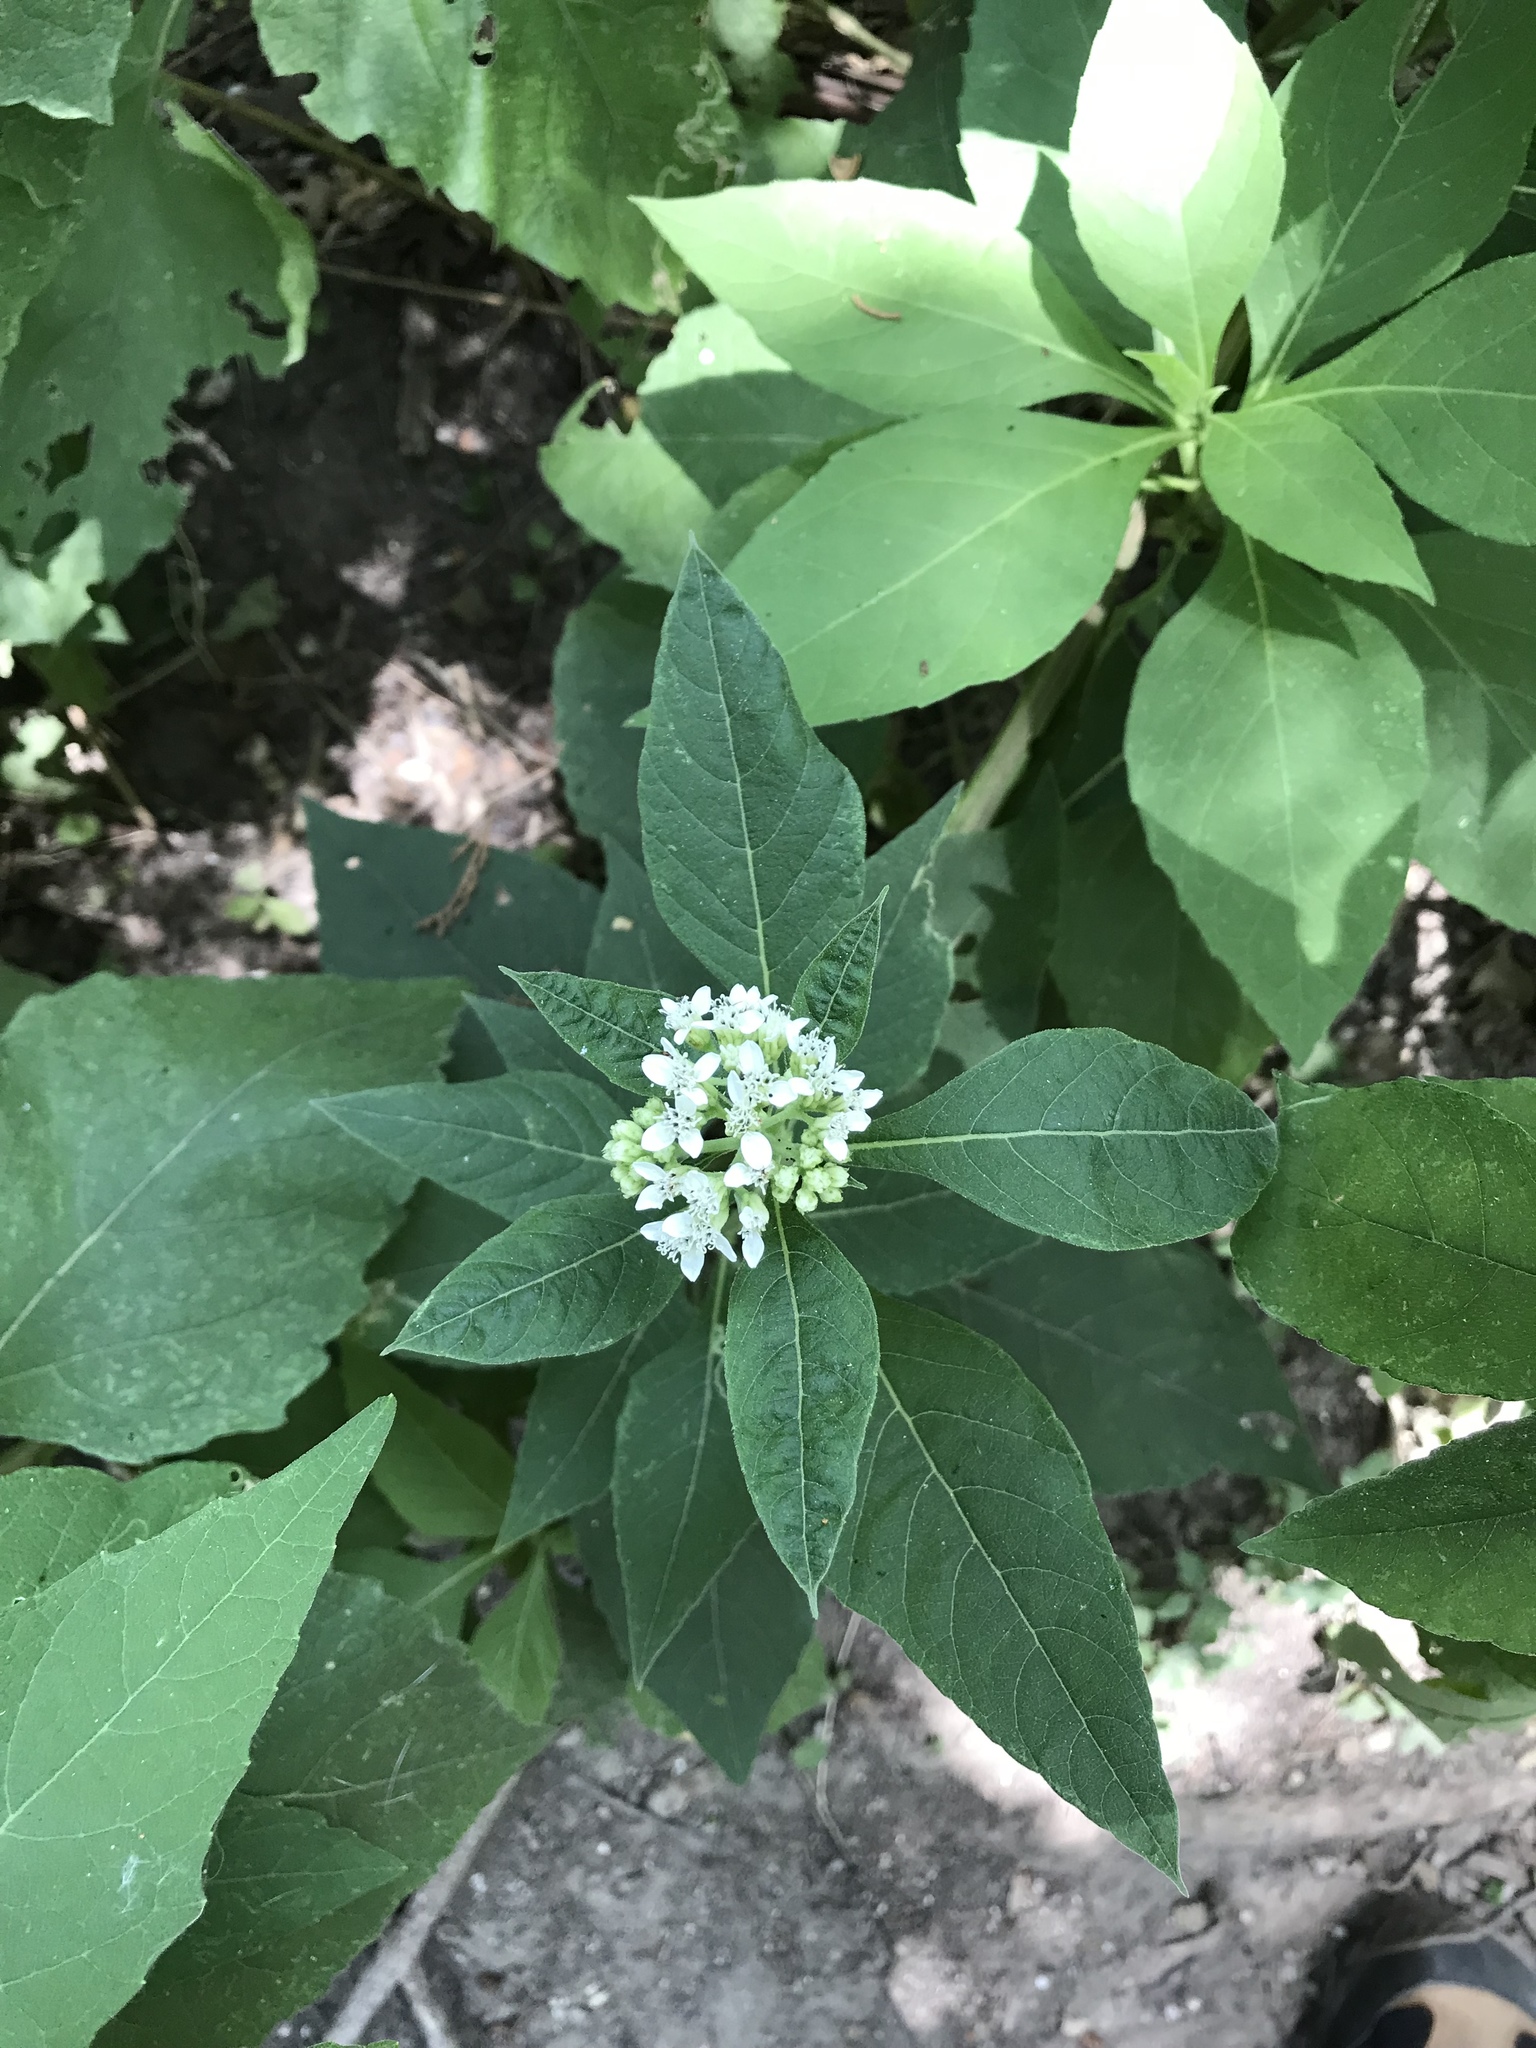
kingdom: Plantae
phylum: Tracheophyta
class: Magnoliopsida
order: Asterales
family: Asteraceae
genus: Verbesina
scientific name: Verbesina virginica
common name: Frostweed
